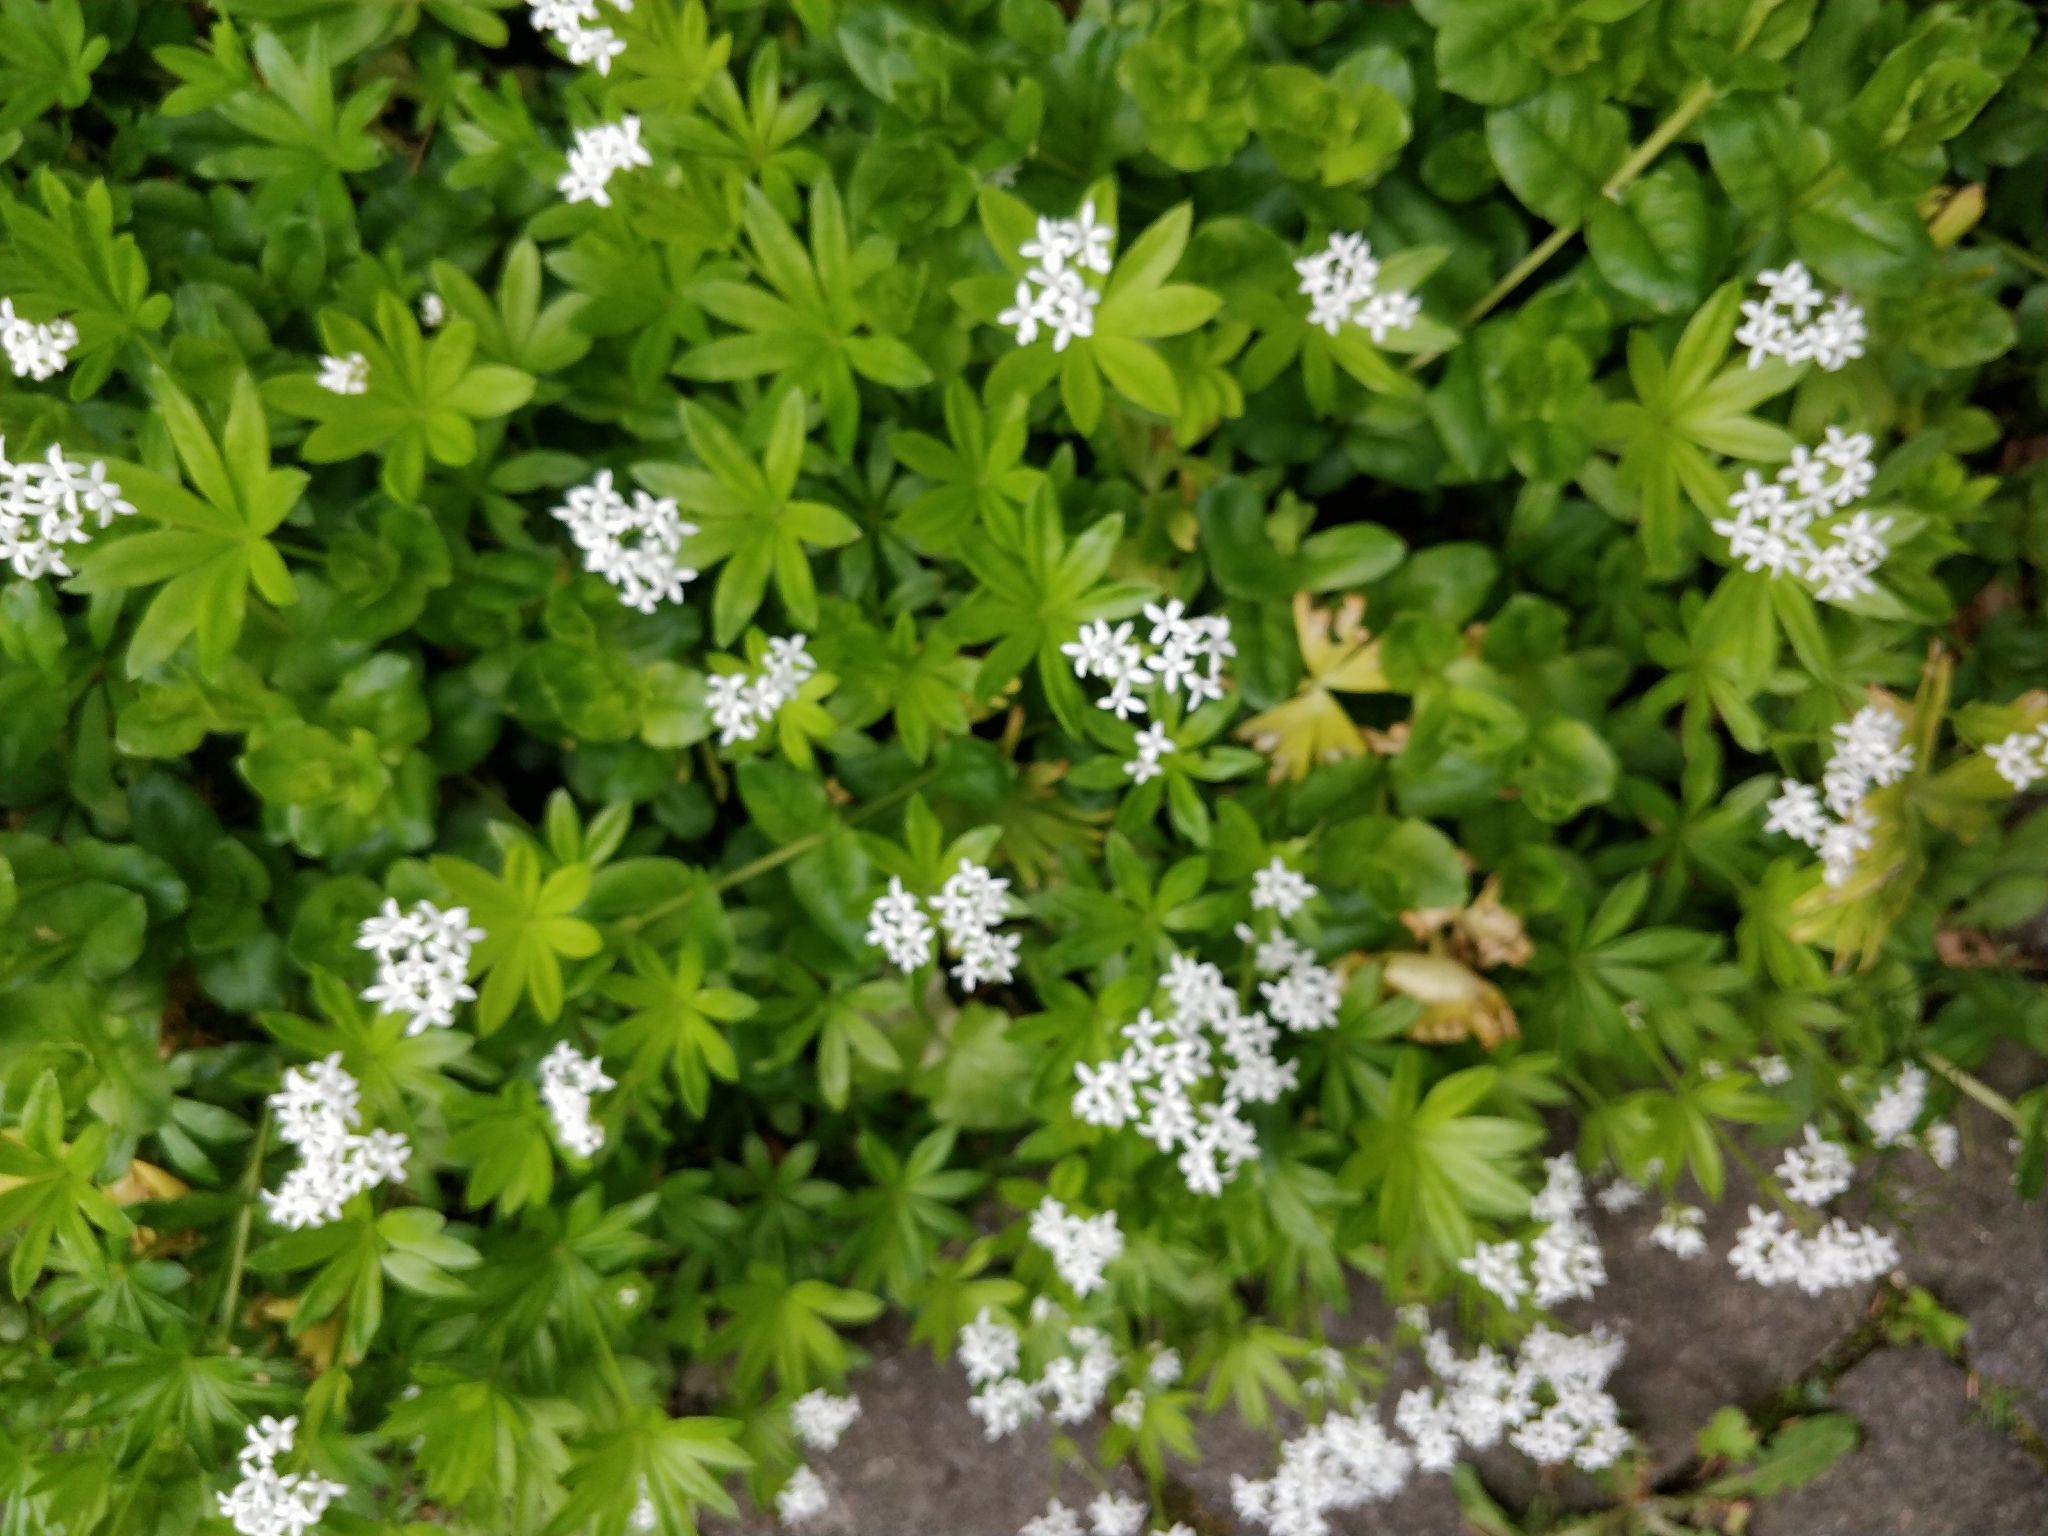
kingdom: Plantae
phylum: Tracheophyta
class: Magnoliopsida
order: Gentianales
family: Rubiaceae
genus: Galium
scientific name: Galium odoratum
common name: Sweet woodruff
